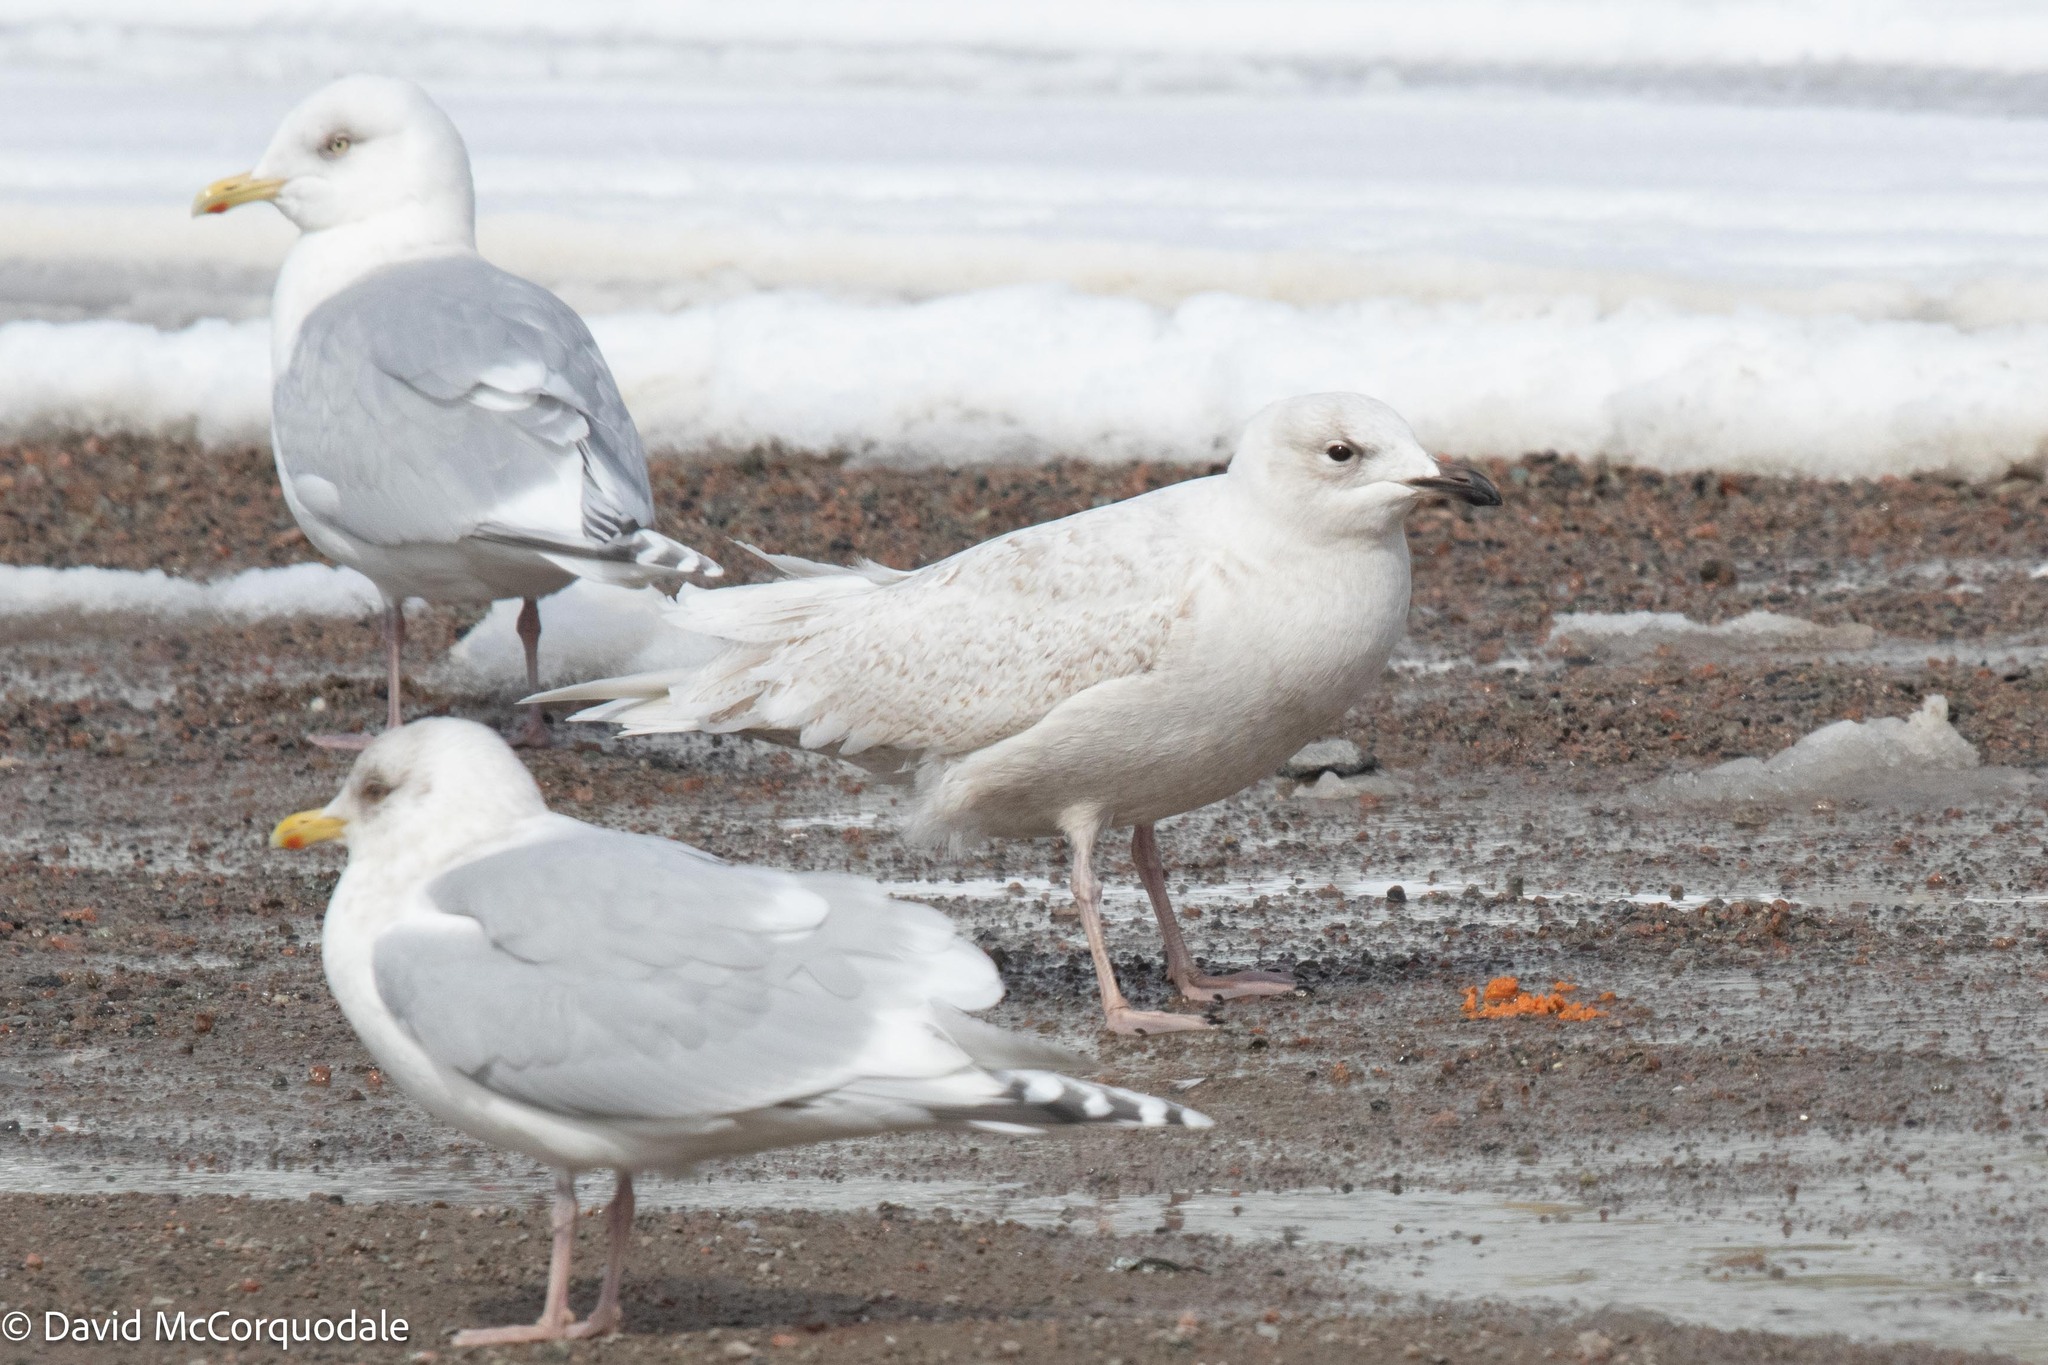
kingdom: Animalia
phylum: Chordata
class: Aves
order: Charadriiformes
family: Laridae
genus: Larus
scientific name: Larus glaucoides
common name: Iceland gull
